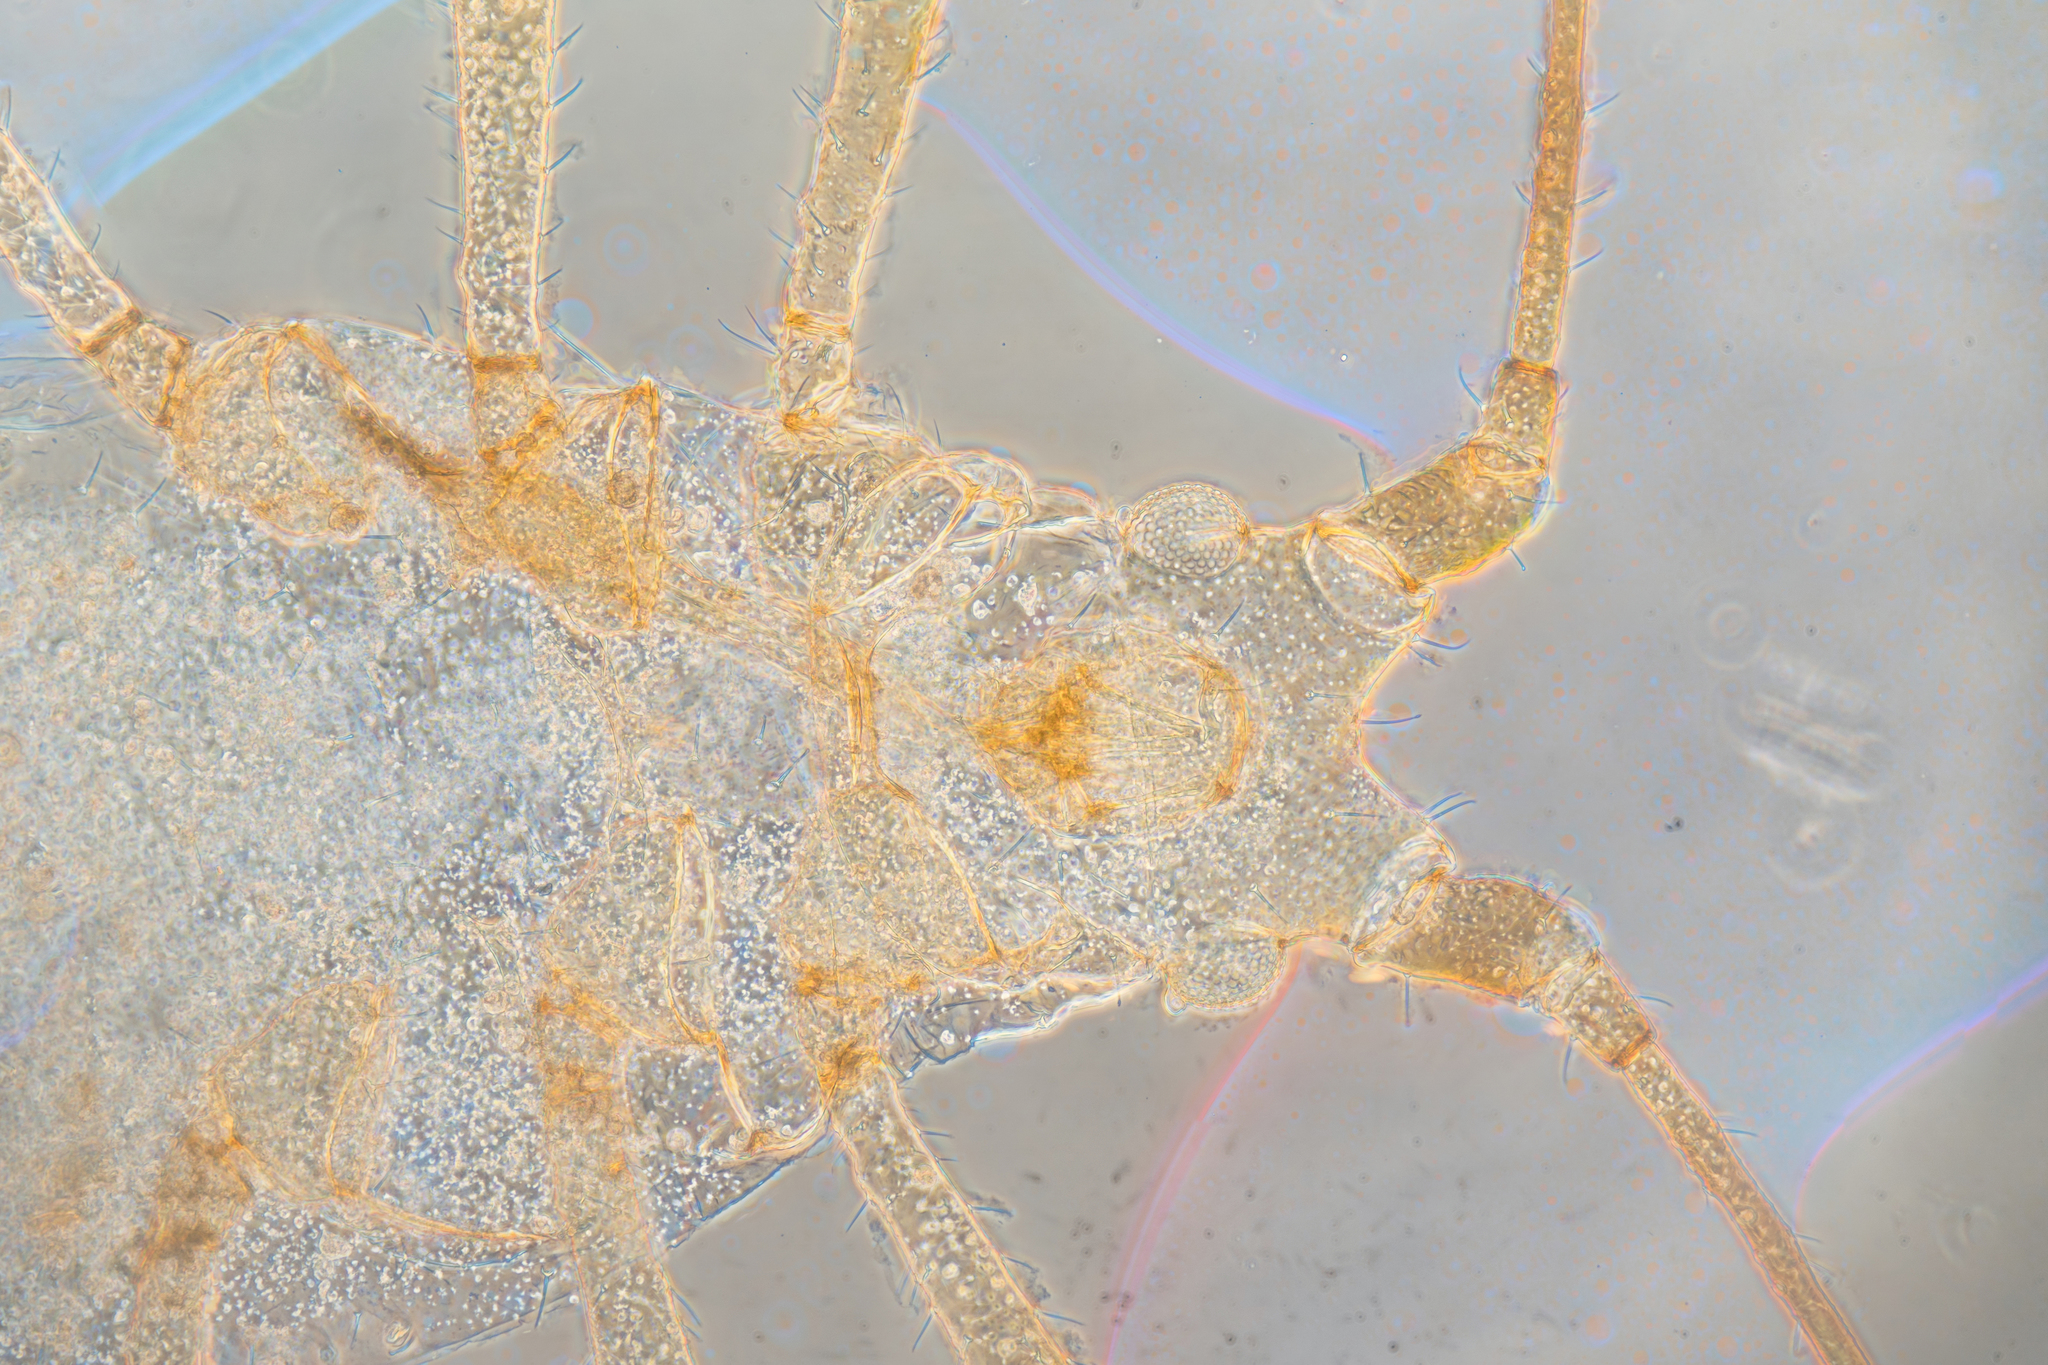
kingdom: Animalia
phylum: Arthropoda
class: Insecta
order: Hemiptera
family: Aphididae
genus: Macrosiphoniella
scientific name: Macrosiphoniella ludovicianae
